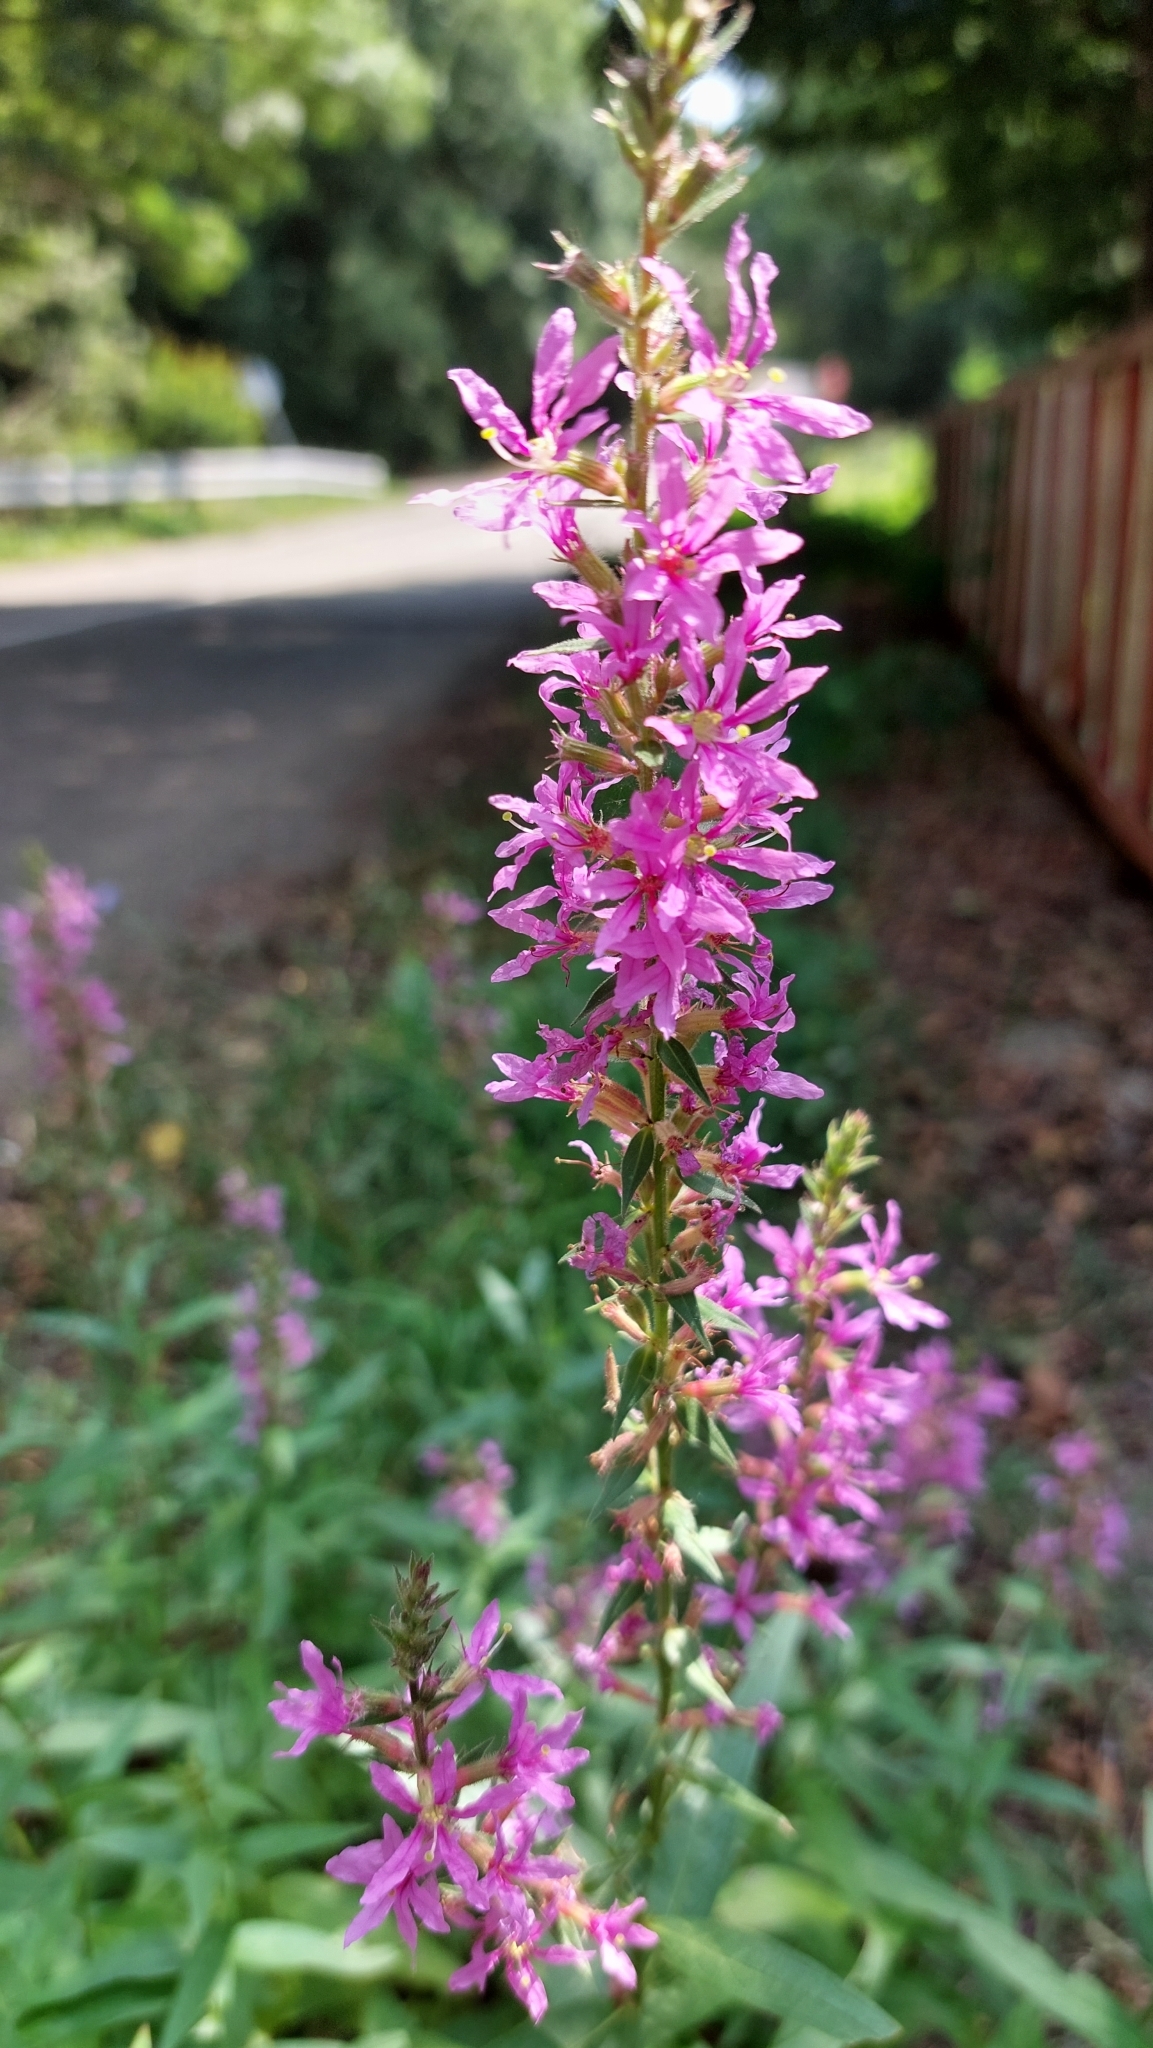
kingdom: Plantae
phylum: Tracheophyta
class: Magnoliopsida
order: Myrtales
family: Lythraceae
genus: Lythrum
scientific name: Lythrum salicaria
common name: Purple loosestrife
